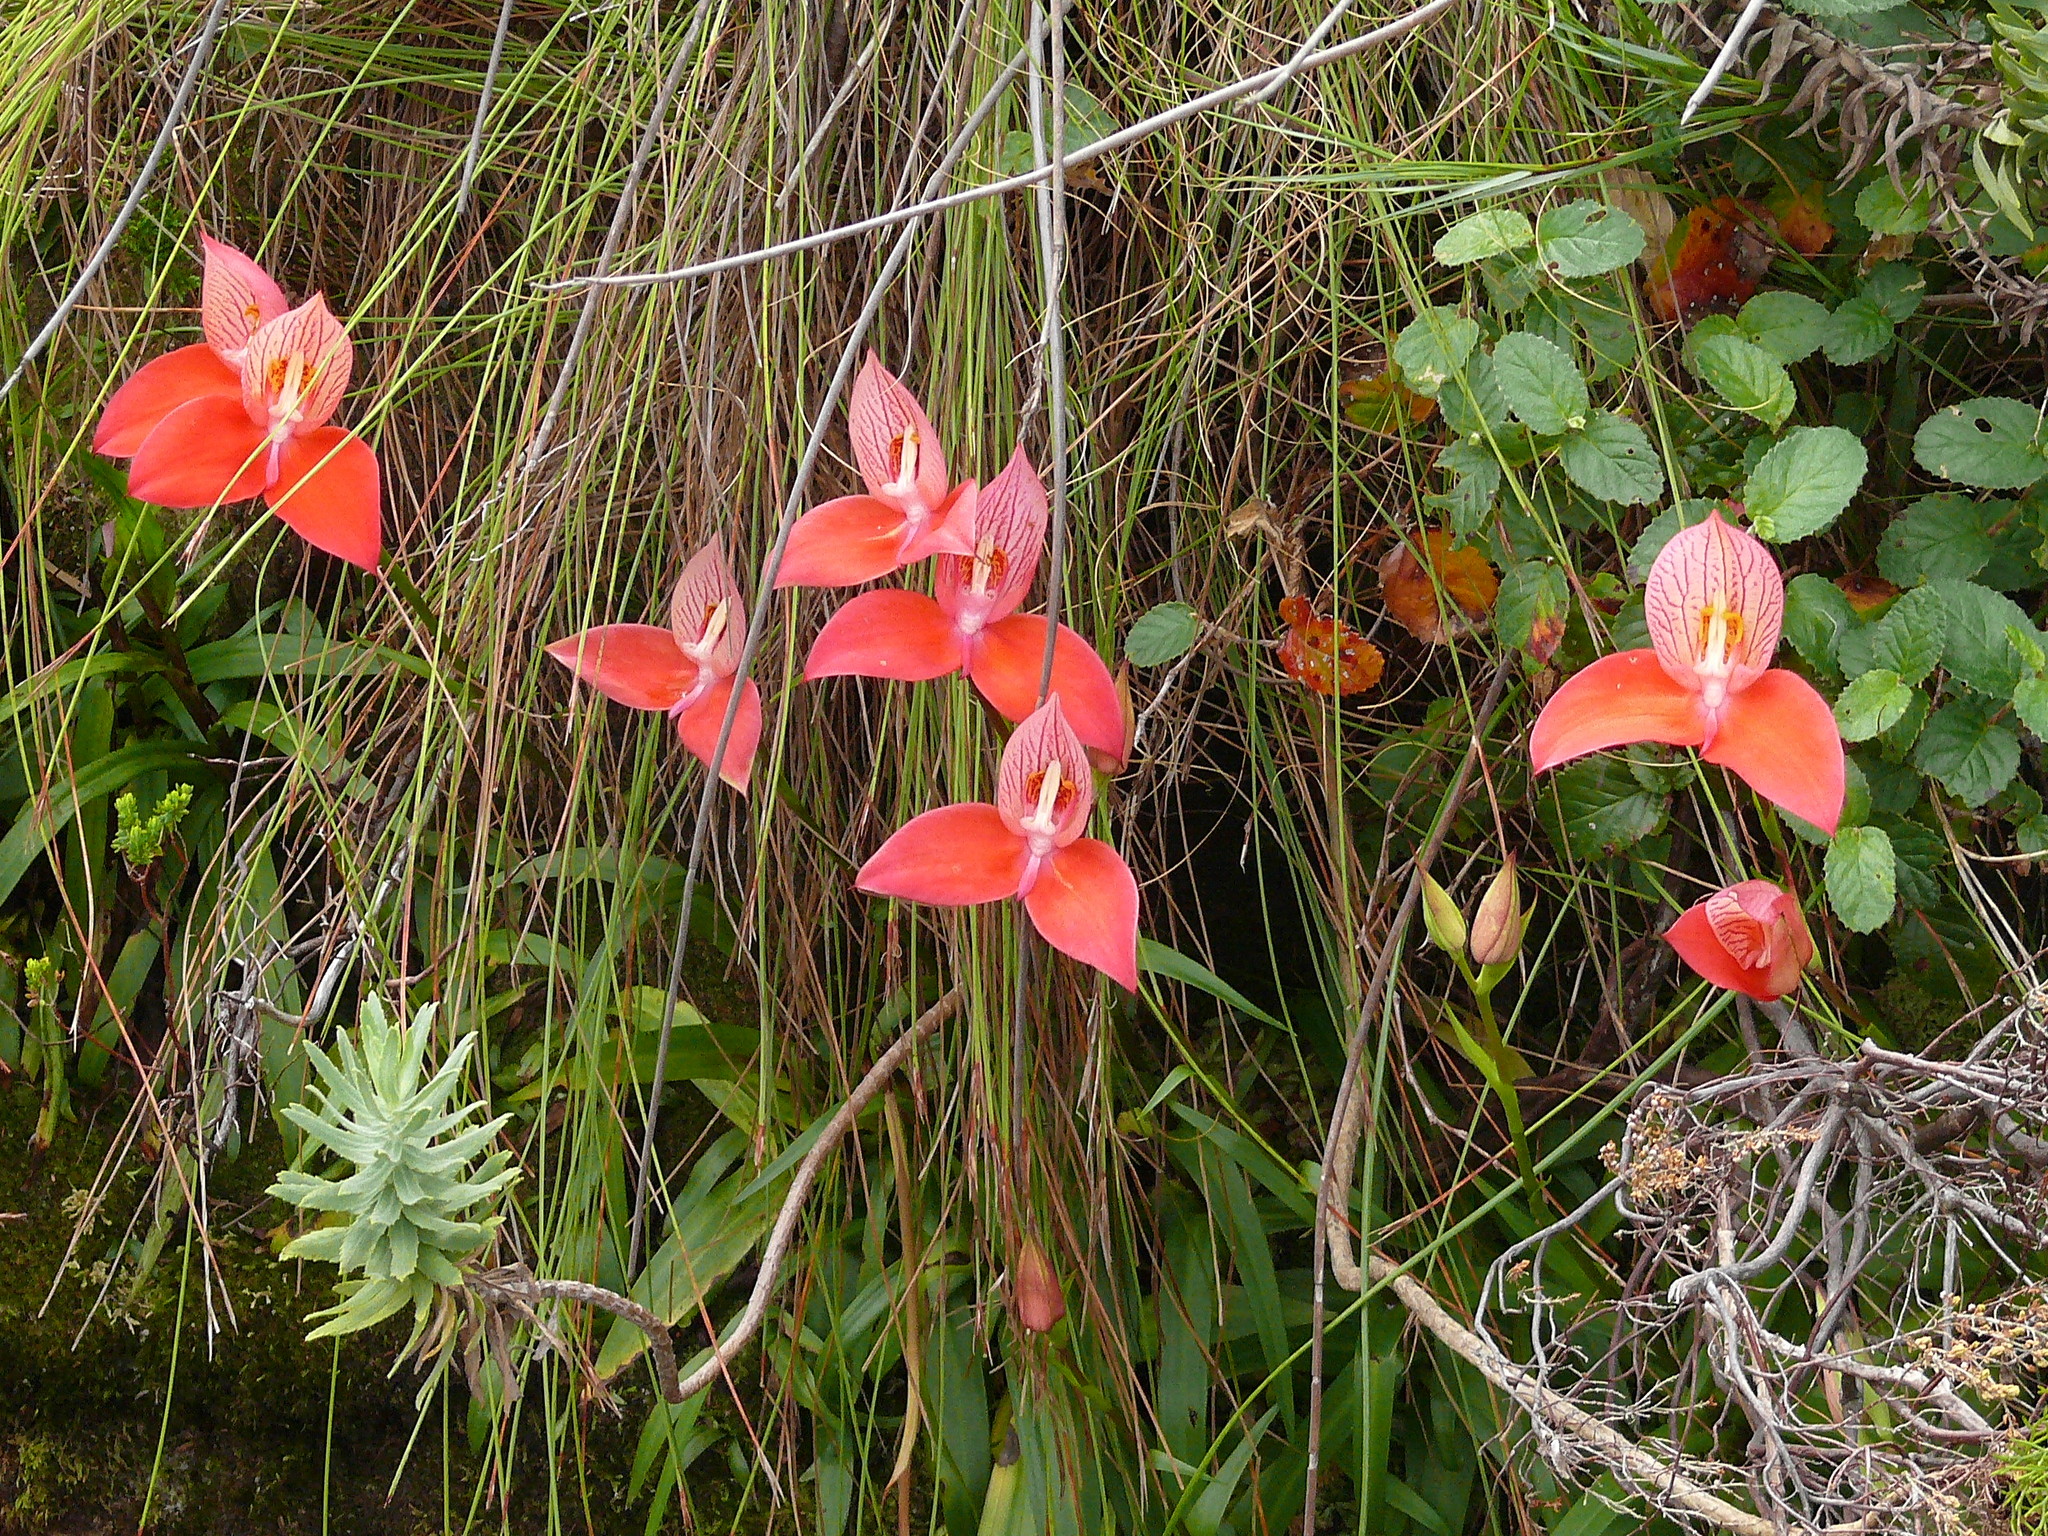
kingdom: Plantae
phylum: Tracheophyta
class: Liliopsida
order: Asparagales
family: Orchidaceae
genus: Disa
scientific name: Disa uniflora
